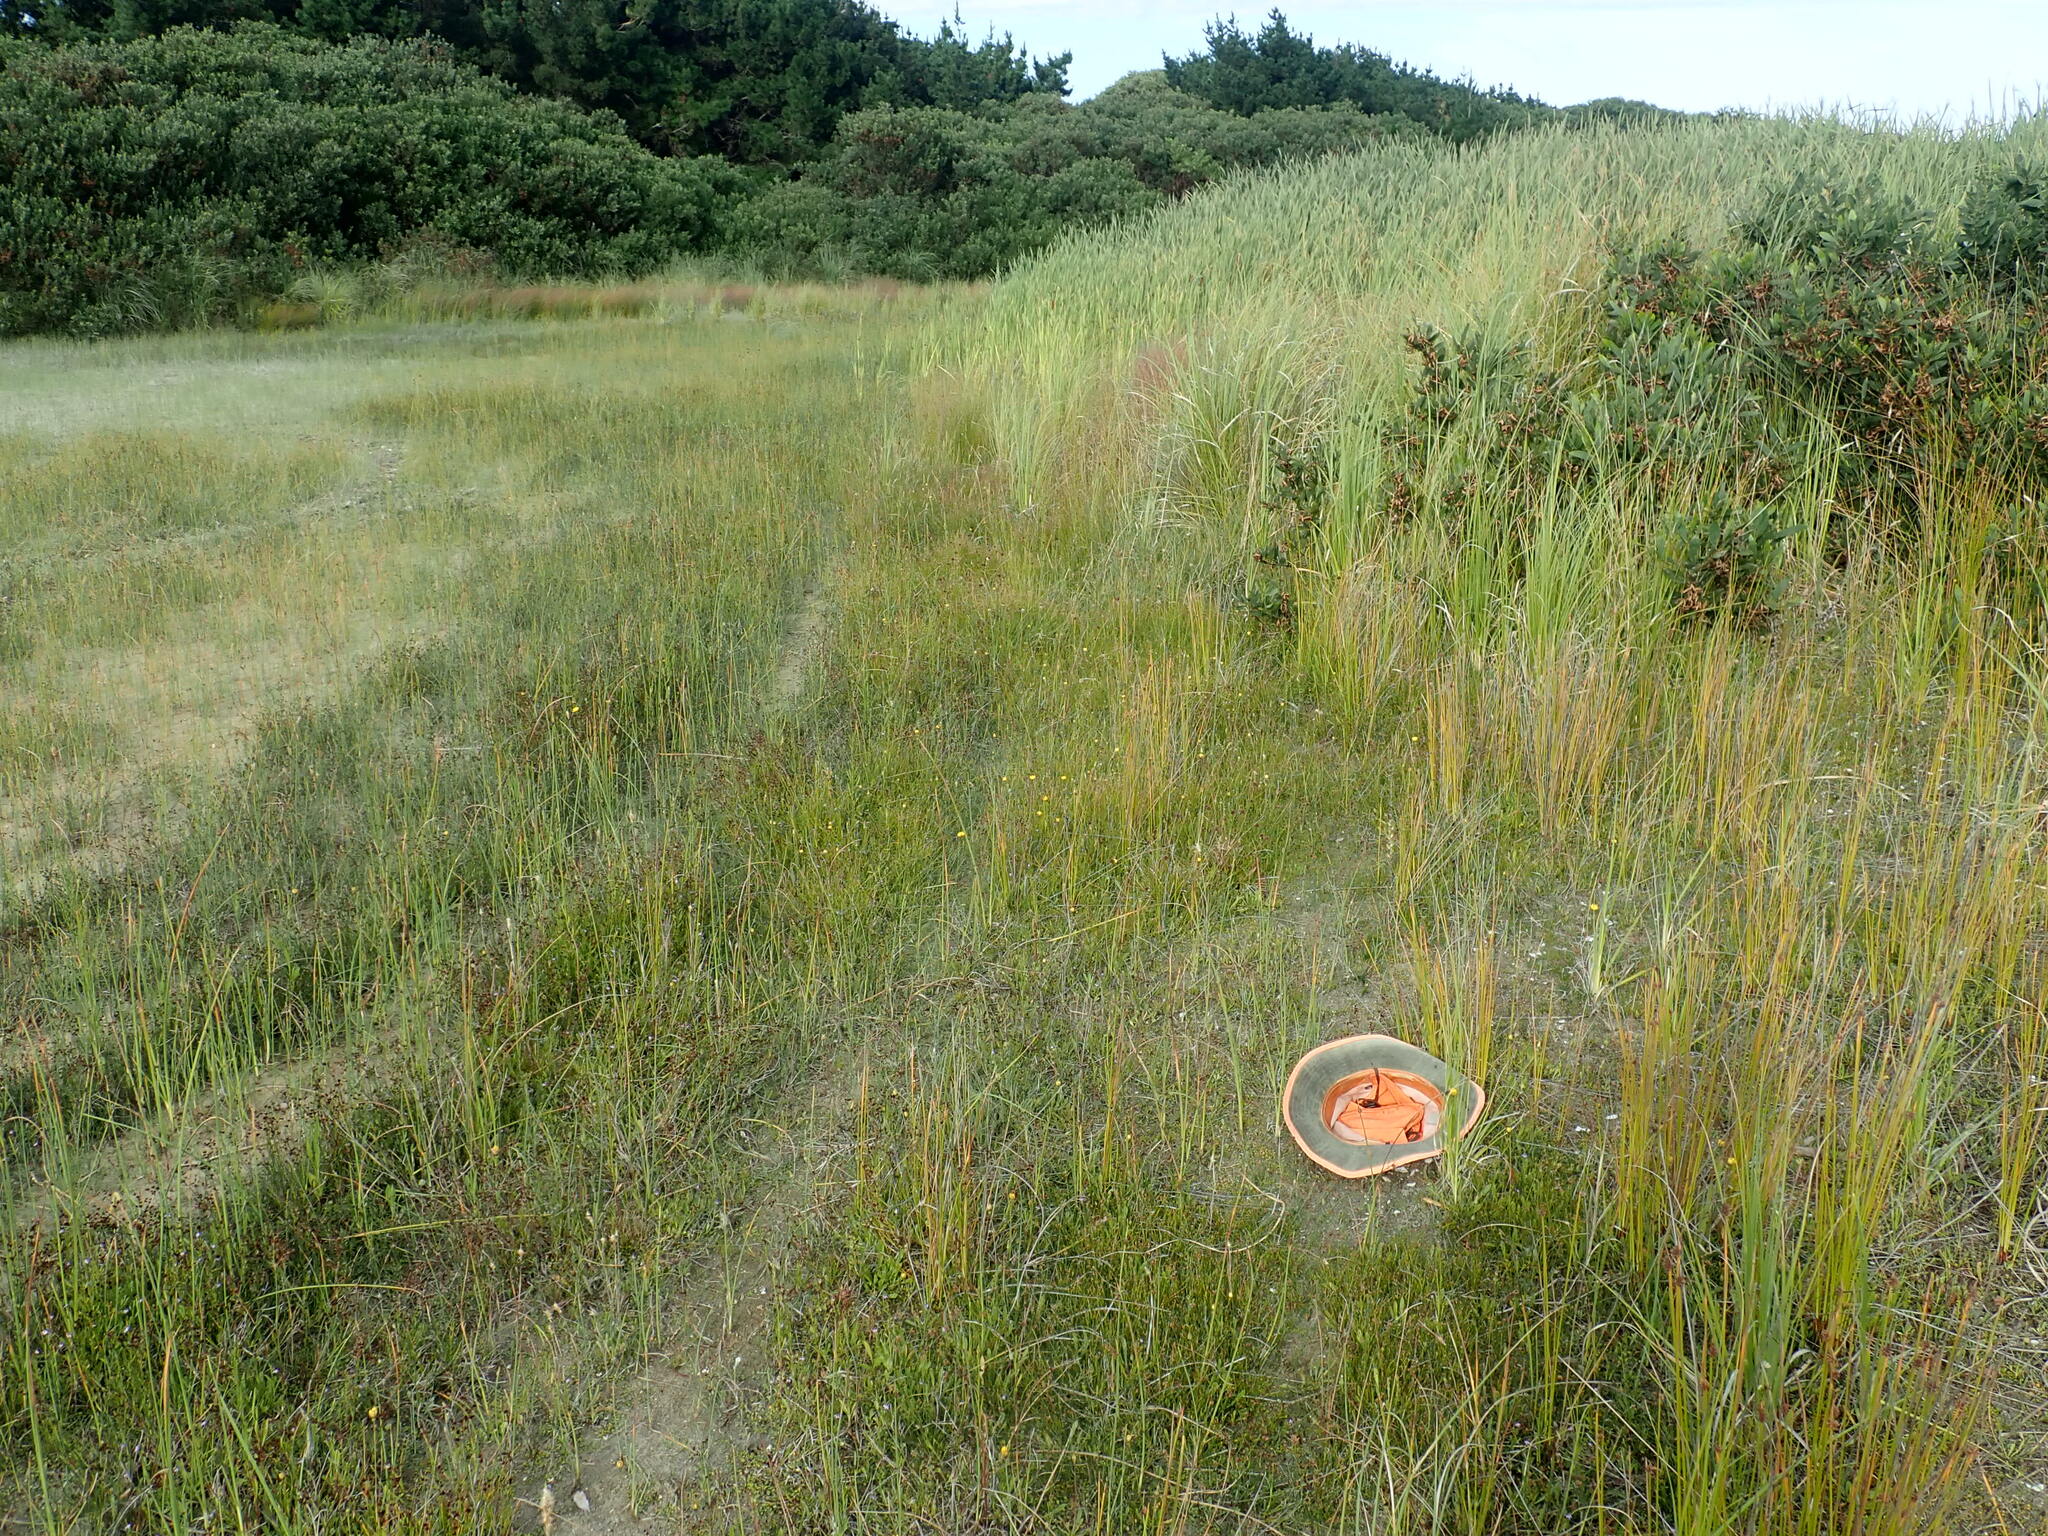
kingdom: Plantae
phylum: Tracheophyta
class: Magnoliopsida
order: Asterales
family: Goodeniaceae
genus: Goodenia
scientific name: Goodenia heenanii
